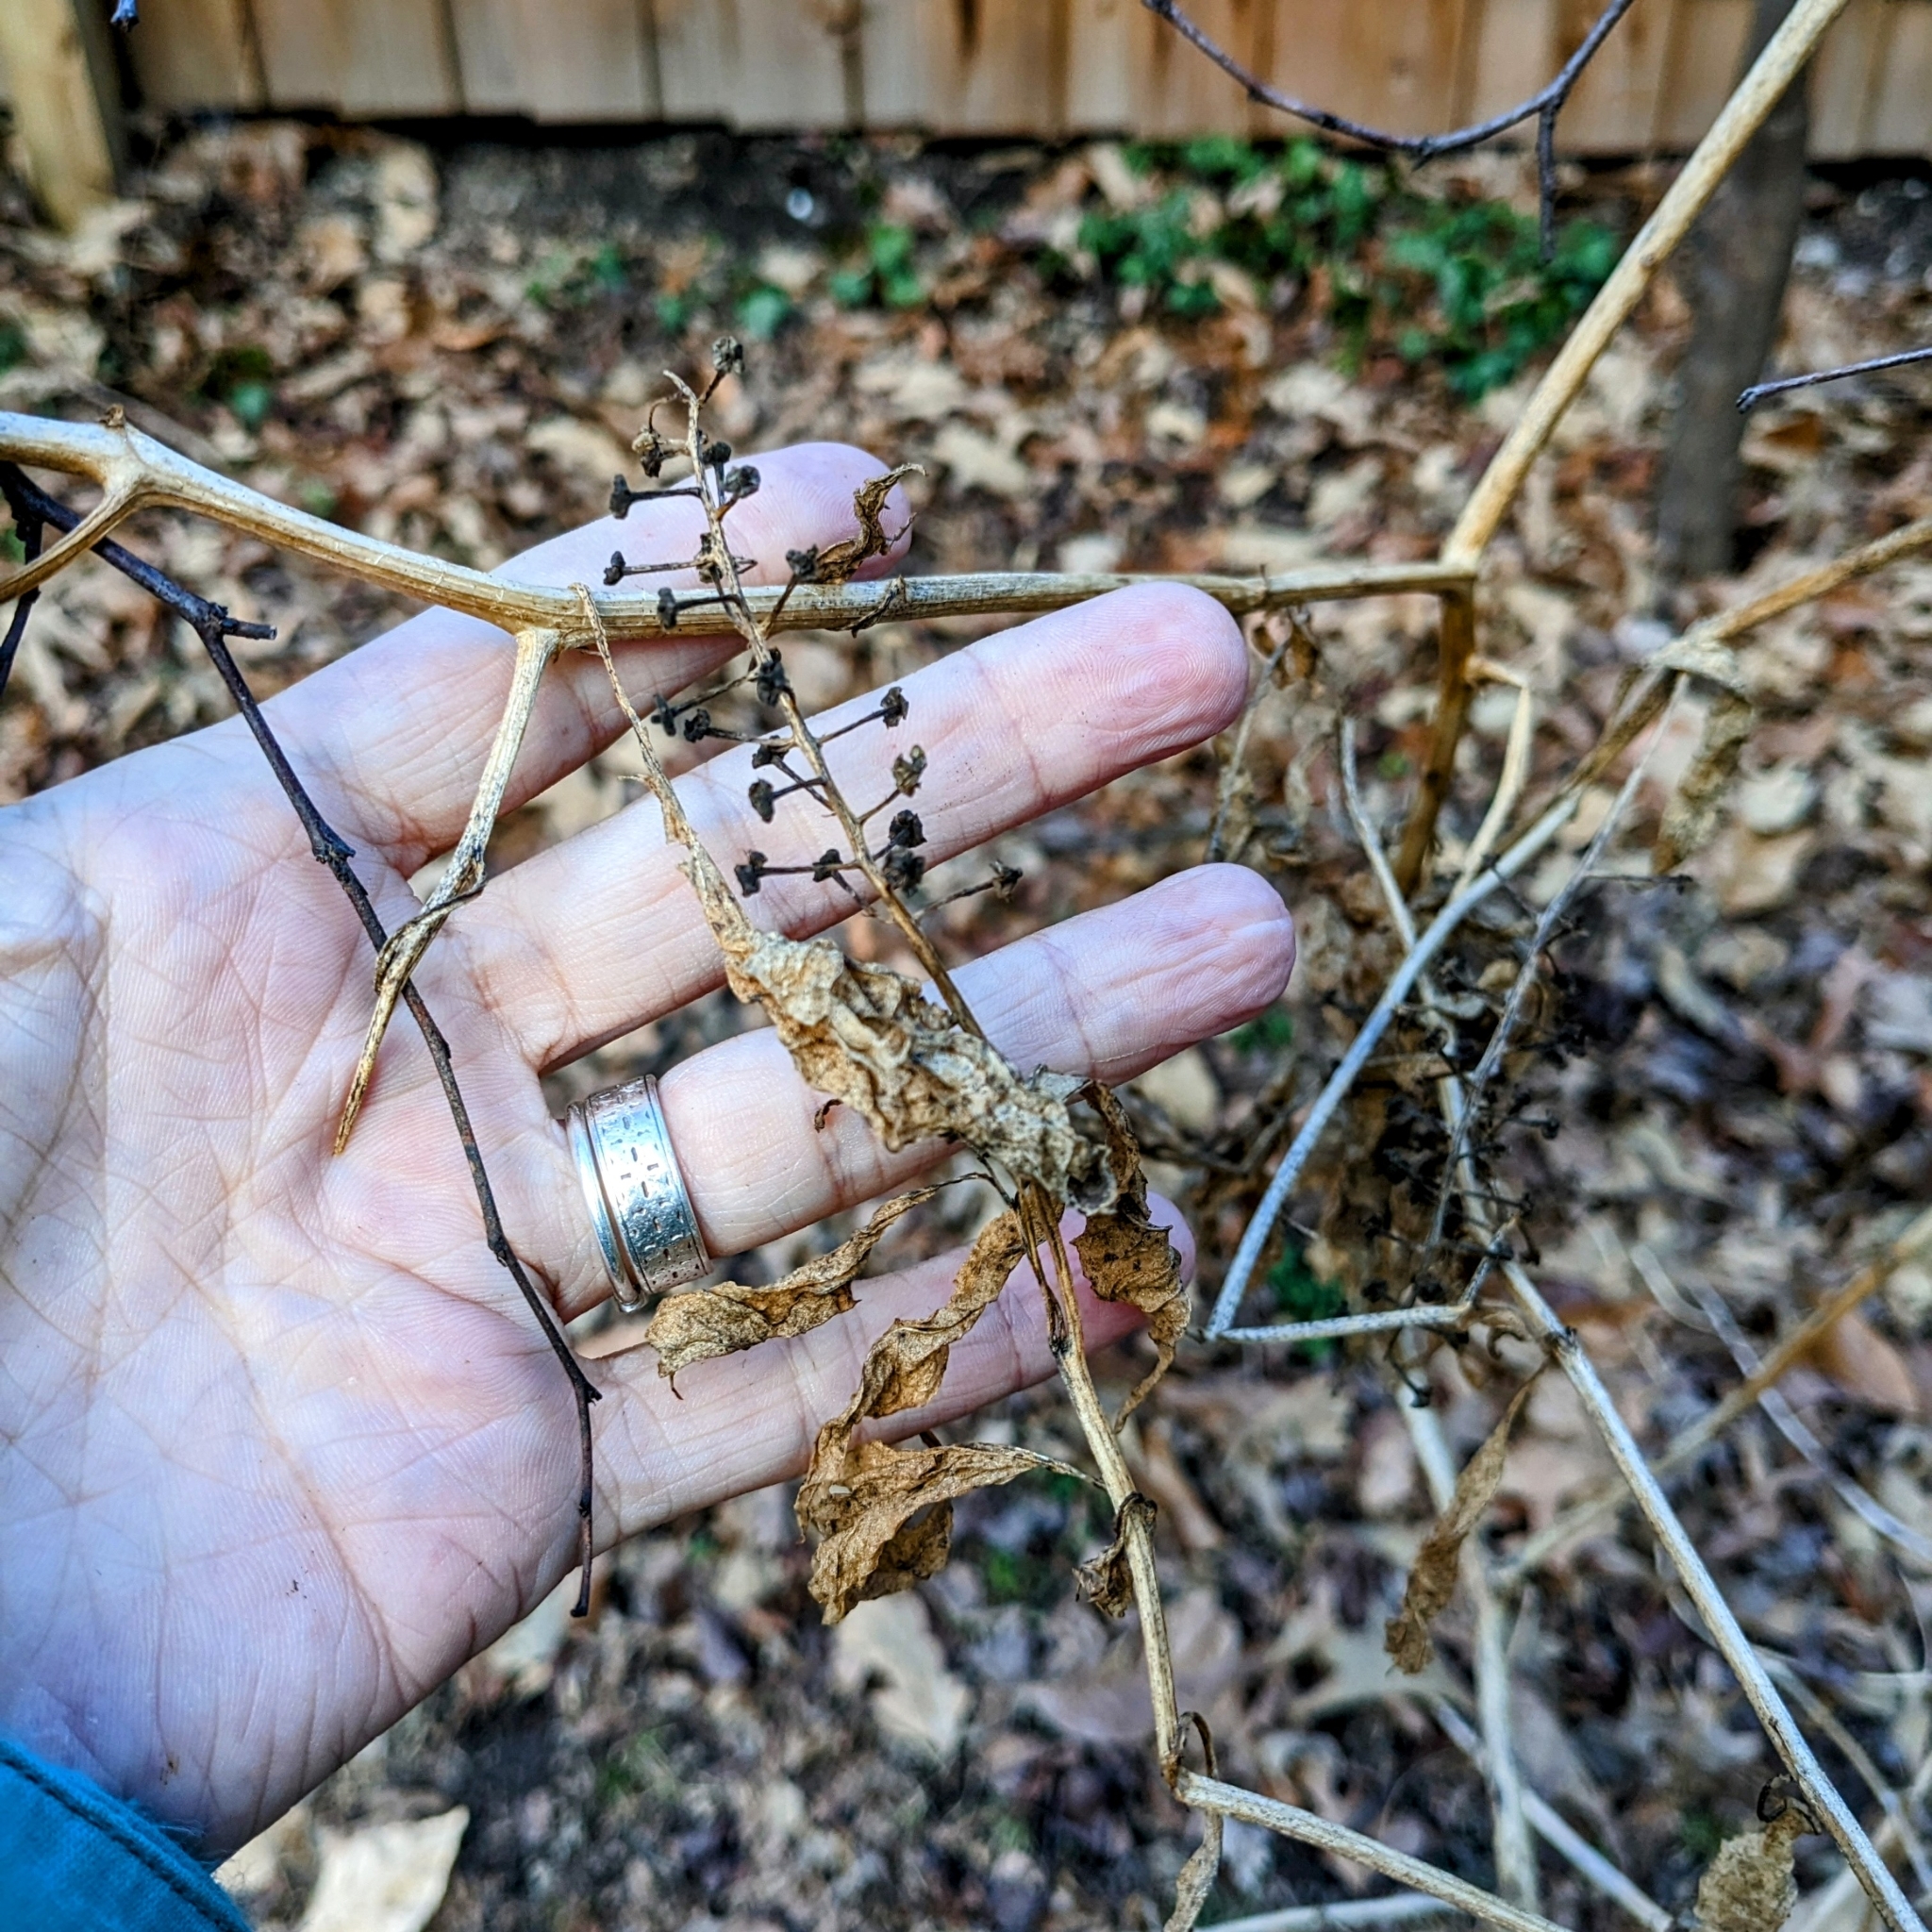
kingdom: Plantae
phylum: Tracheophyta
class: Magnoliopsida
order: Caryophyllales
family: Phytolaccaceae
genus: Phytolacca
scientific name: Phytolacca americana
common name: American pokeweed
